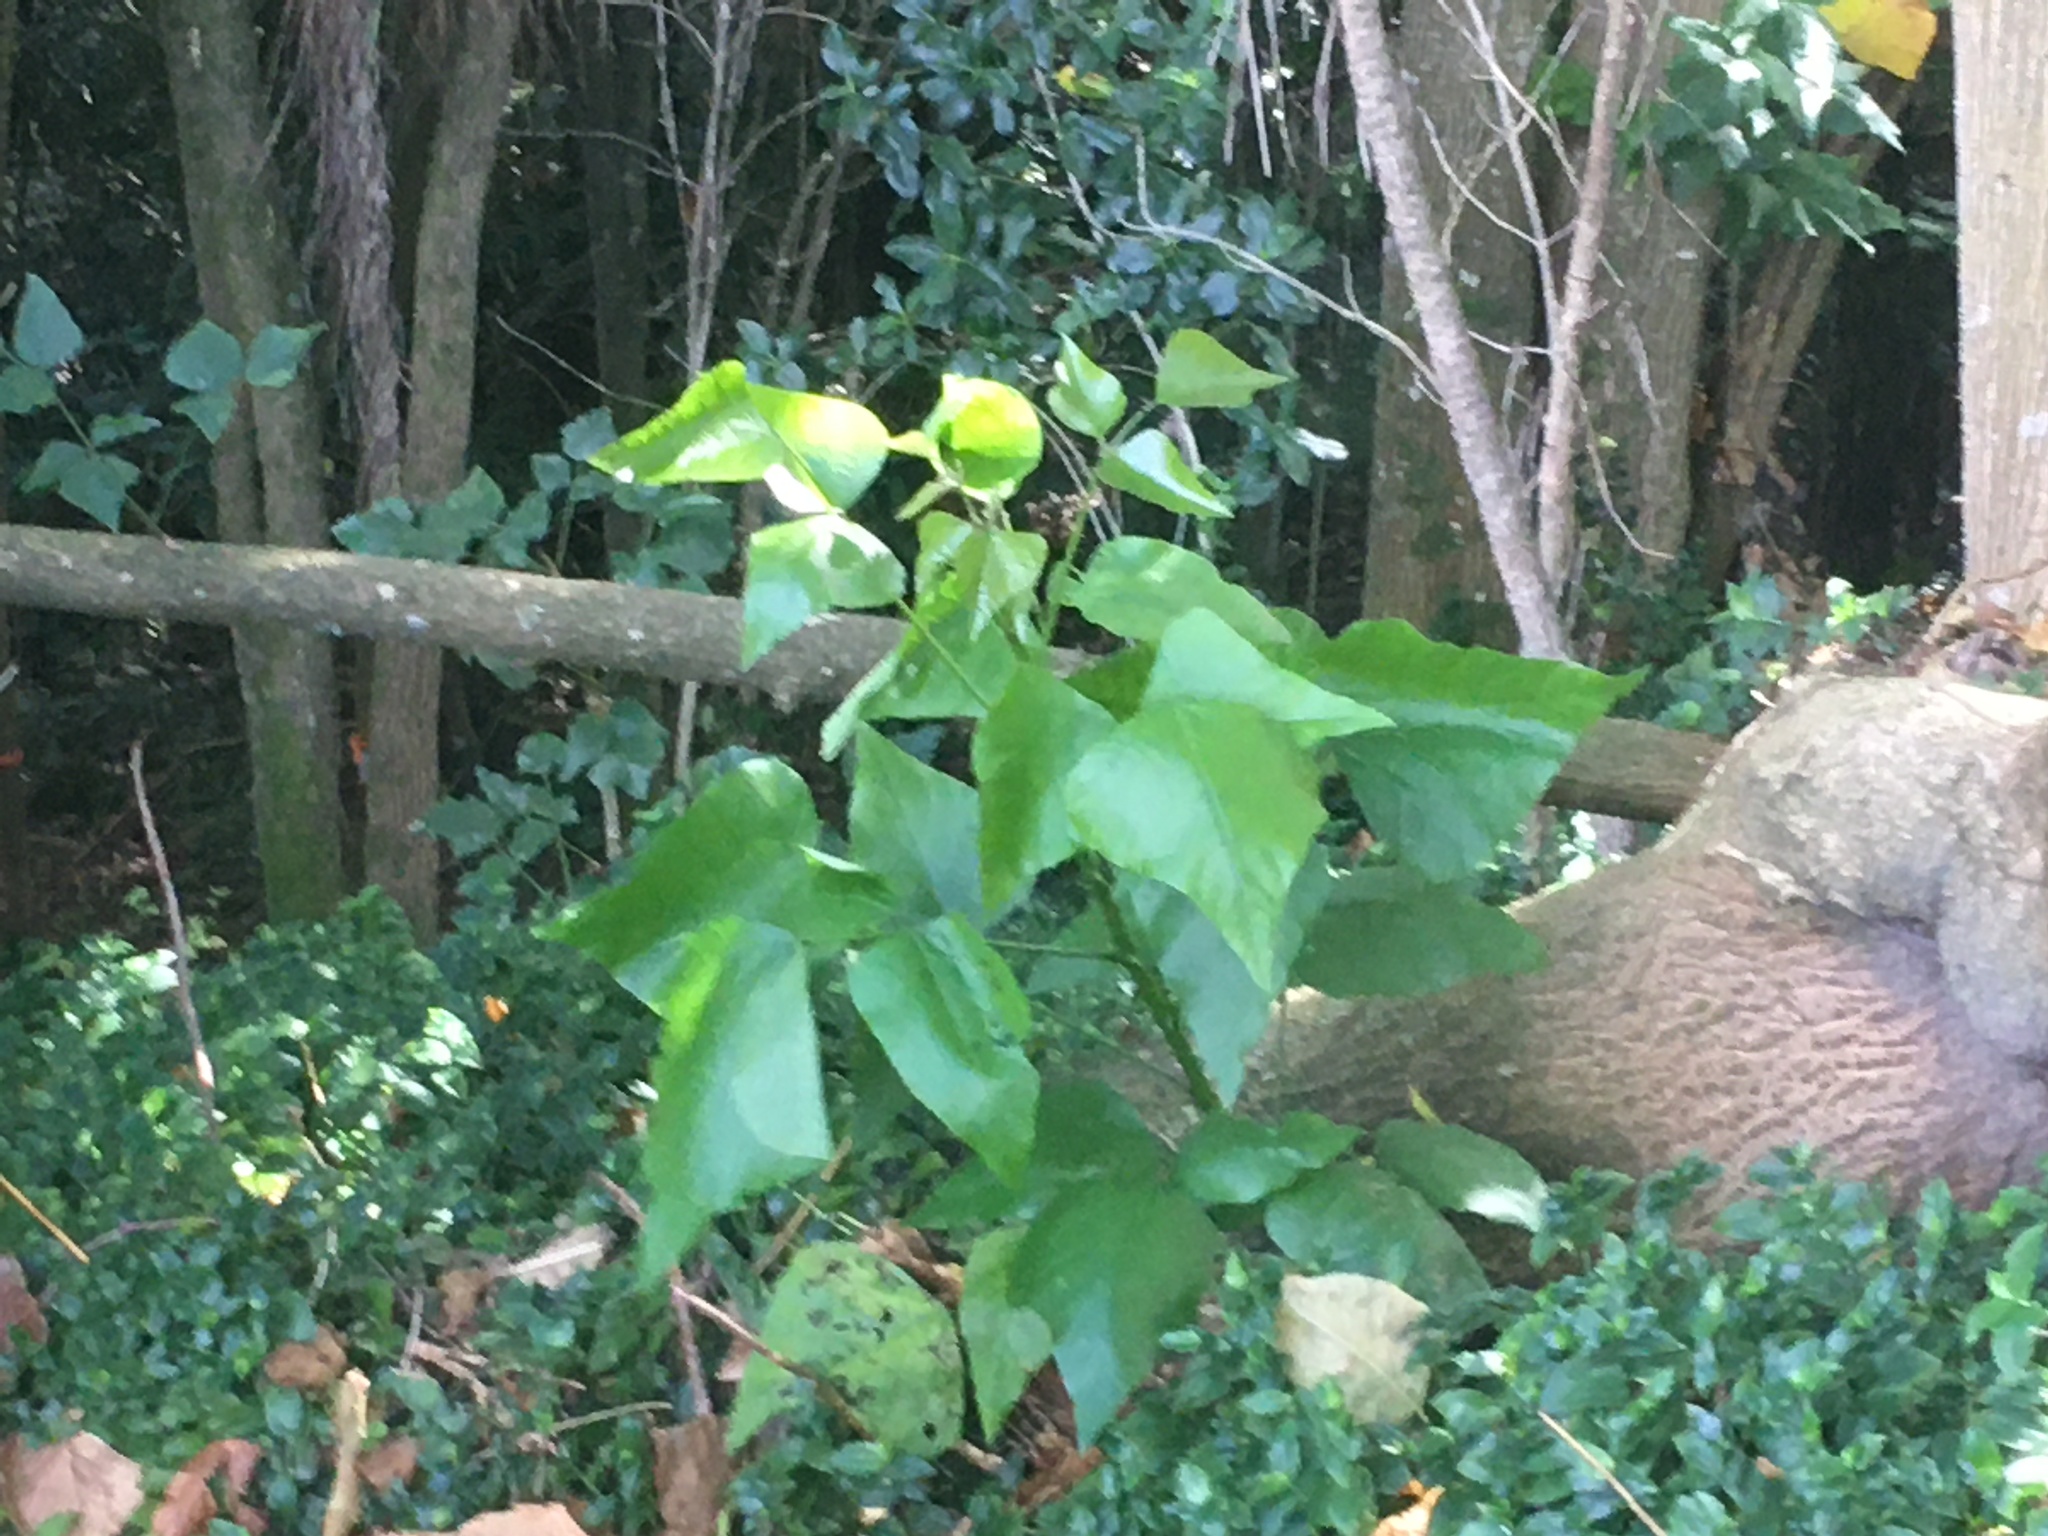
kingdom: Plantae
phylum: Tracheophyta
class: Magnoliopsida
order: Fabales
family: Fabaceae
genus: Erythrina
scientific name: Erythrina sykesii
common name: Coraltree
